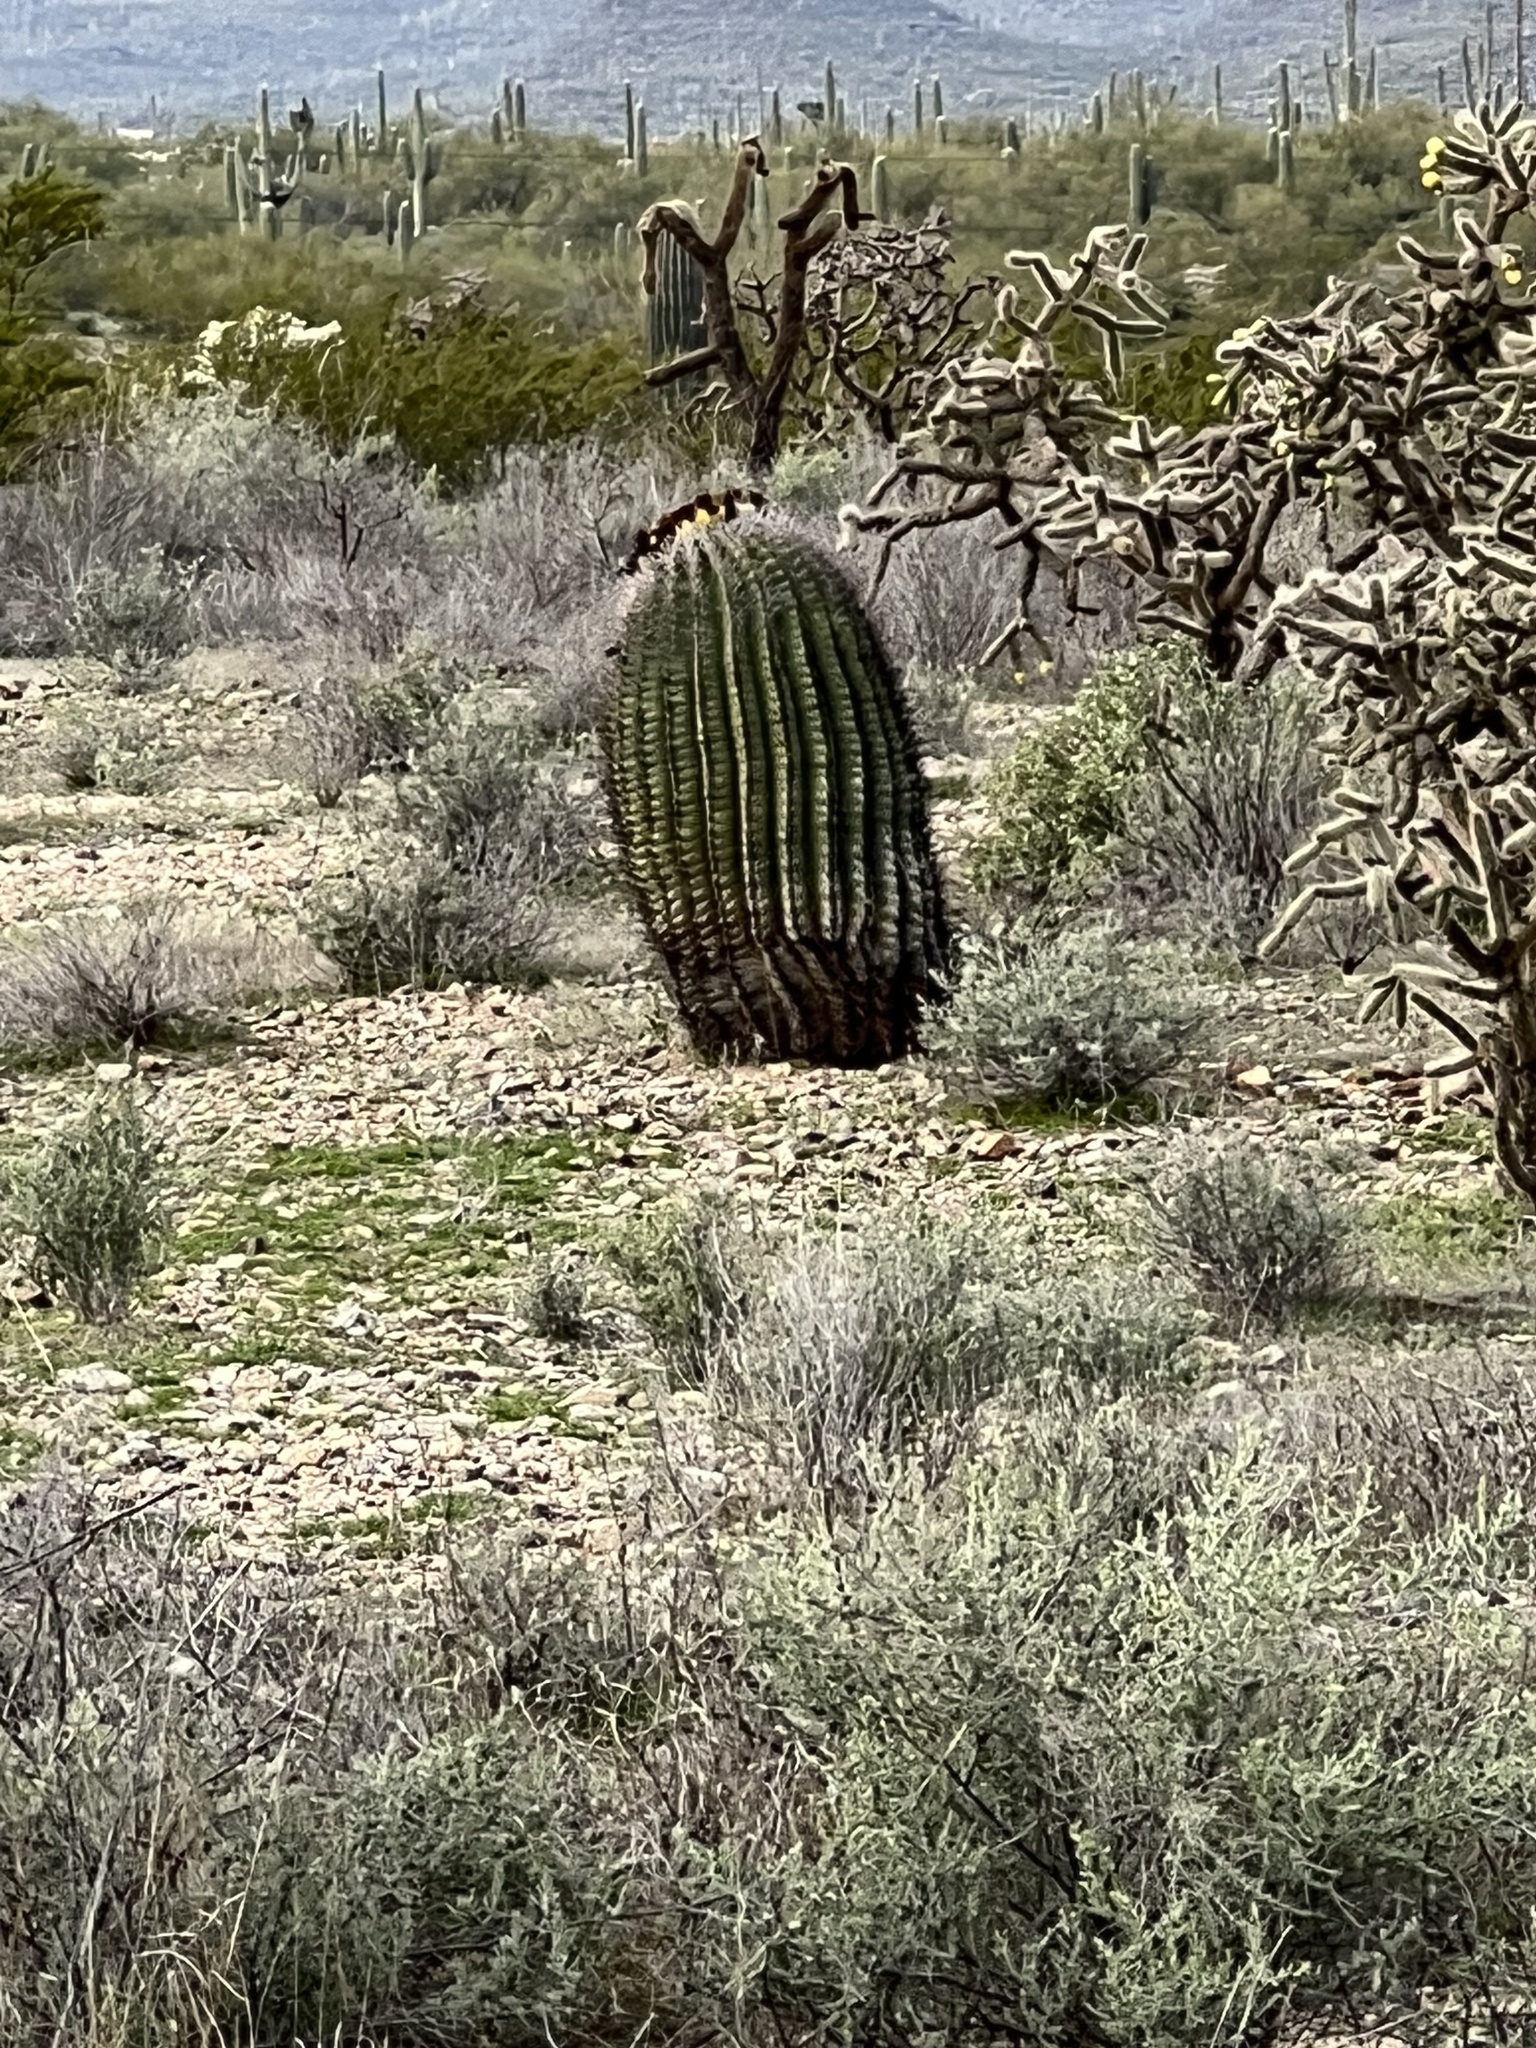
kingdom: Plantae
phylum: Tracheophyta
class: Magnoliopsida
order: Caryophyllales
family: Cactaceae
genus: Ferocactus
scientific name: Ferocactus wislizeni
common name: Candy barrel cactus
